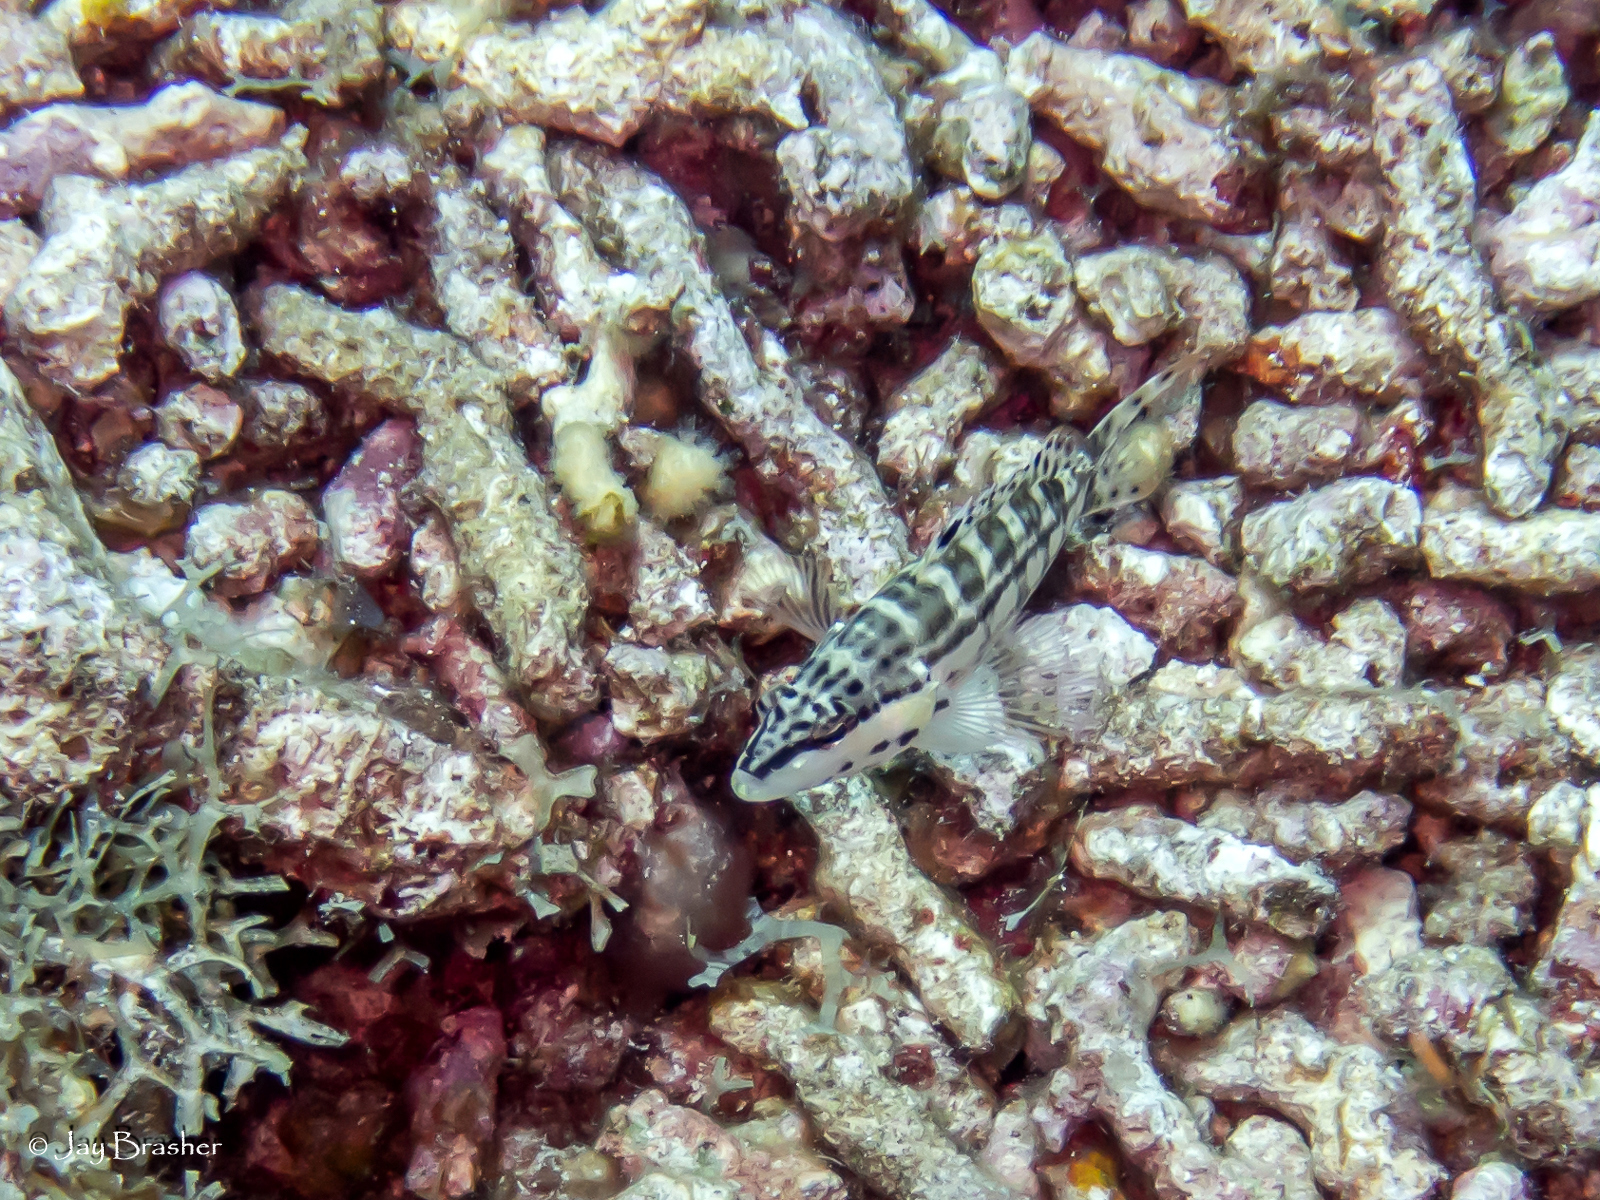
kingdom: Animalia
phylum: Chordata
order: Perciformes
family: Serranidae
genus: Serranus
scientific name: Serranus tigrinus
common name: Harlequin bass
